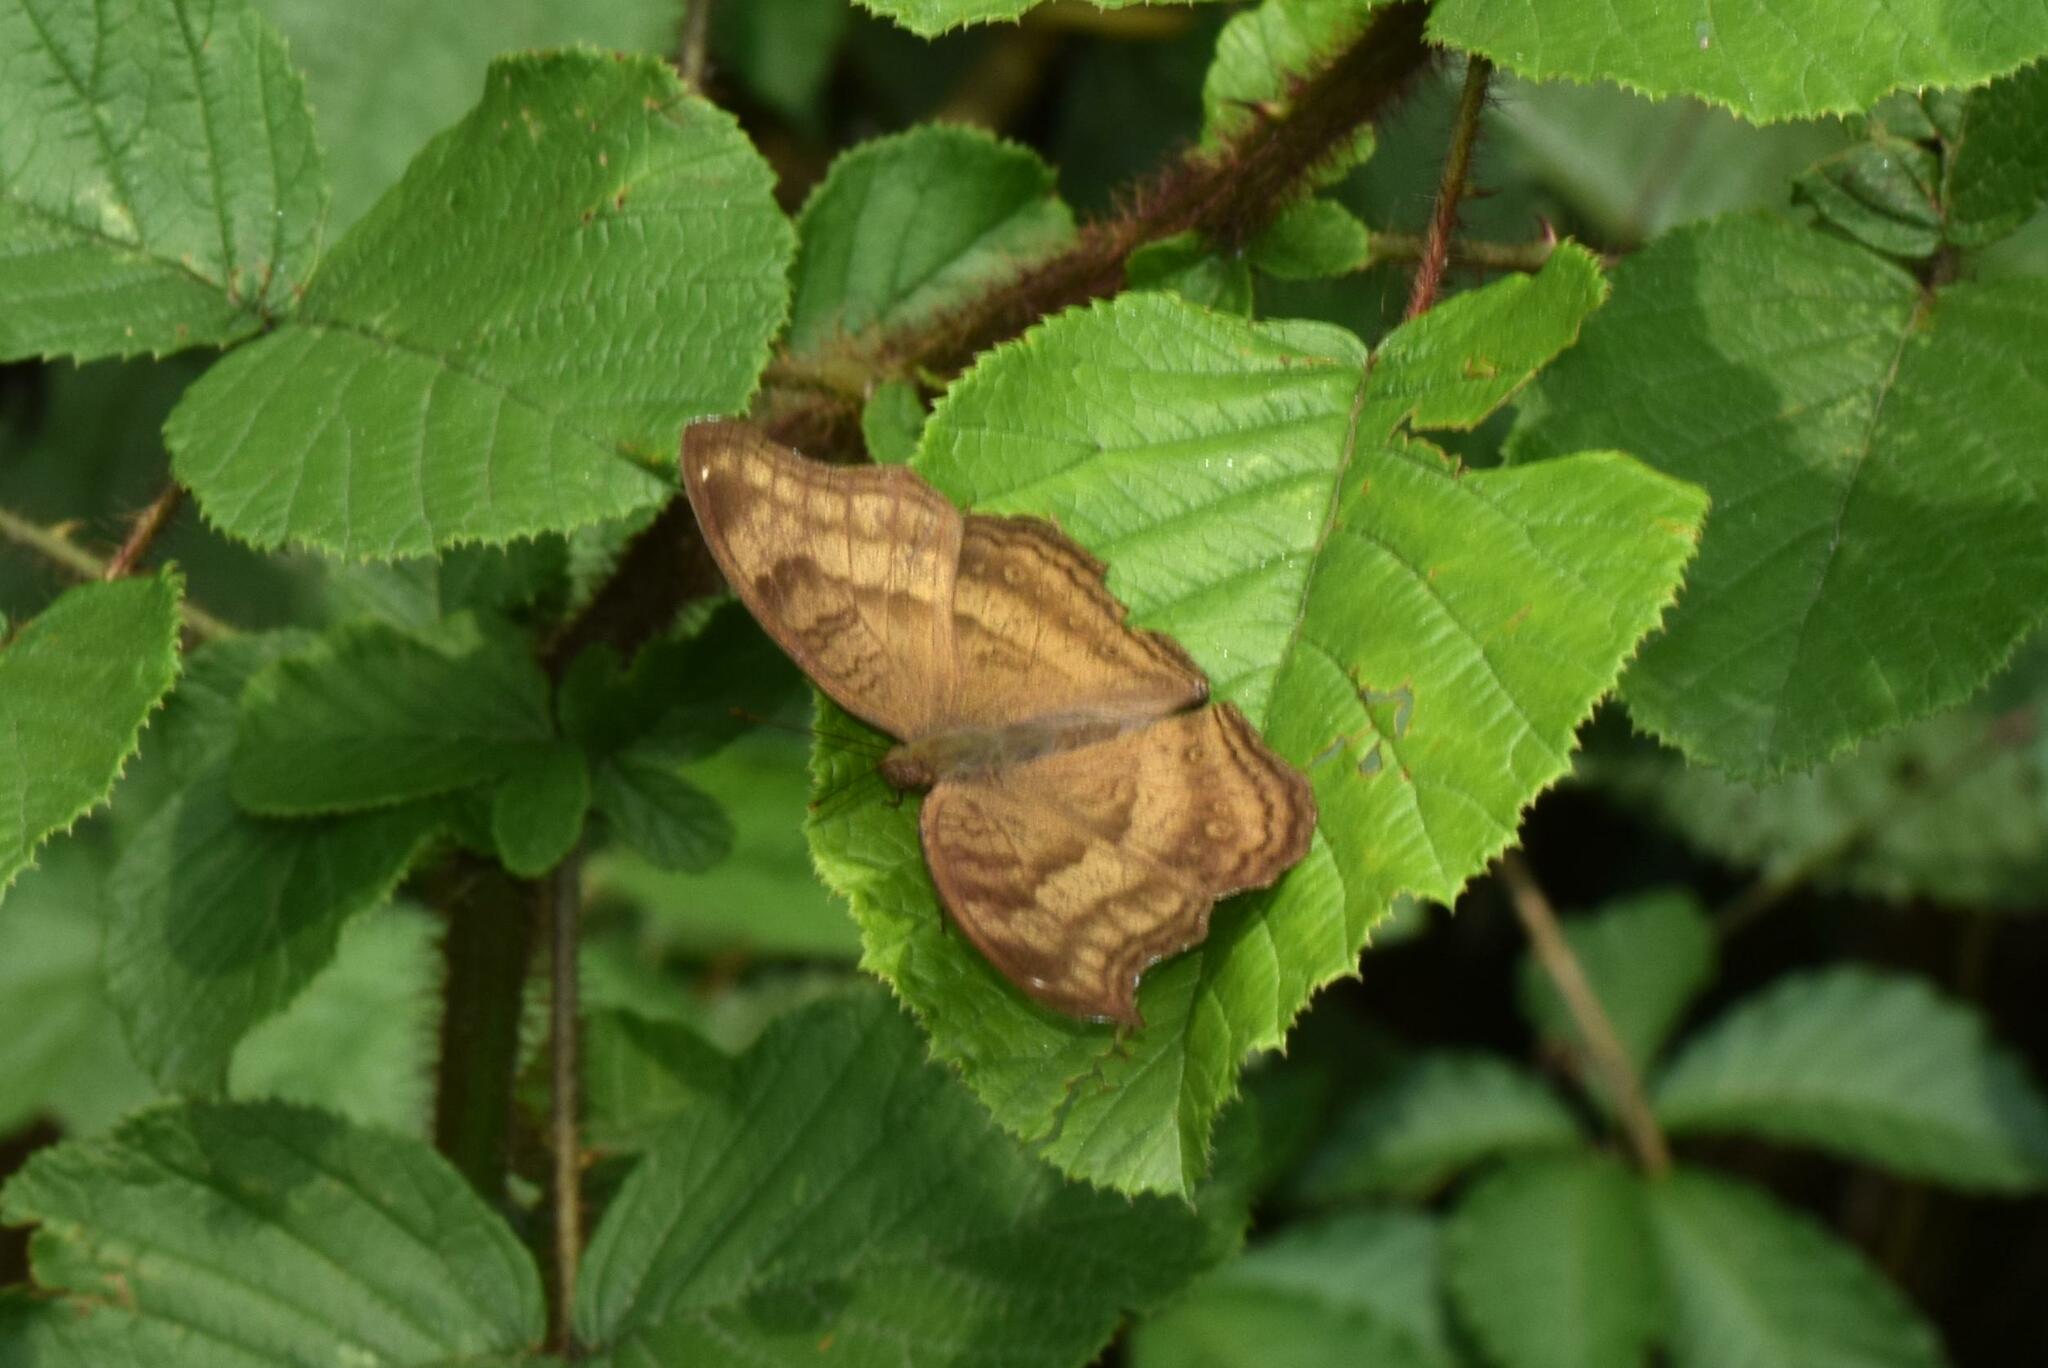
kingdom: Animalia
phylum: Arthropoda
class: Insecta
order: Lepidoptera
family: Nymphalidae
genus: Junonia
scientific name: Junonia iphita
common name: Chocolate pansy
